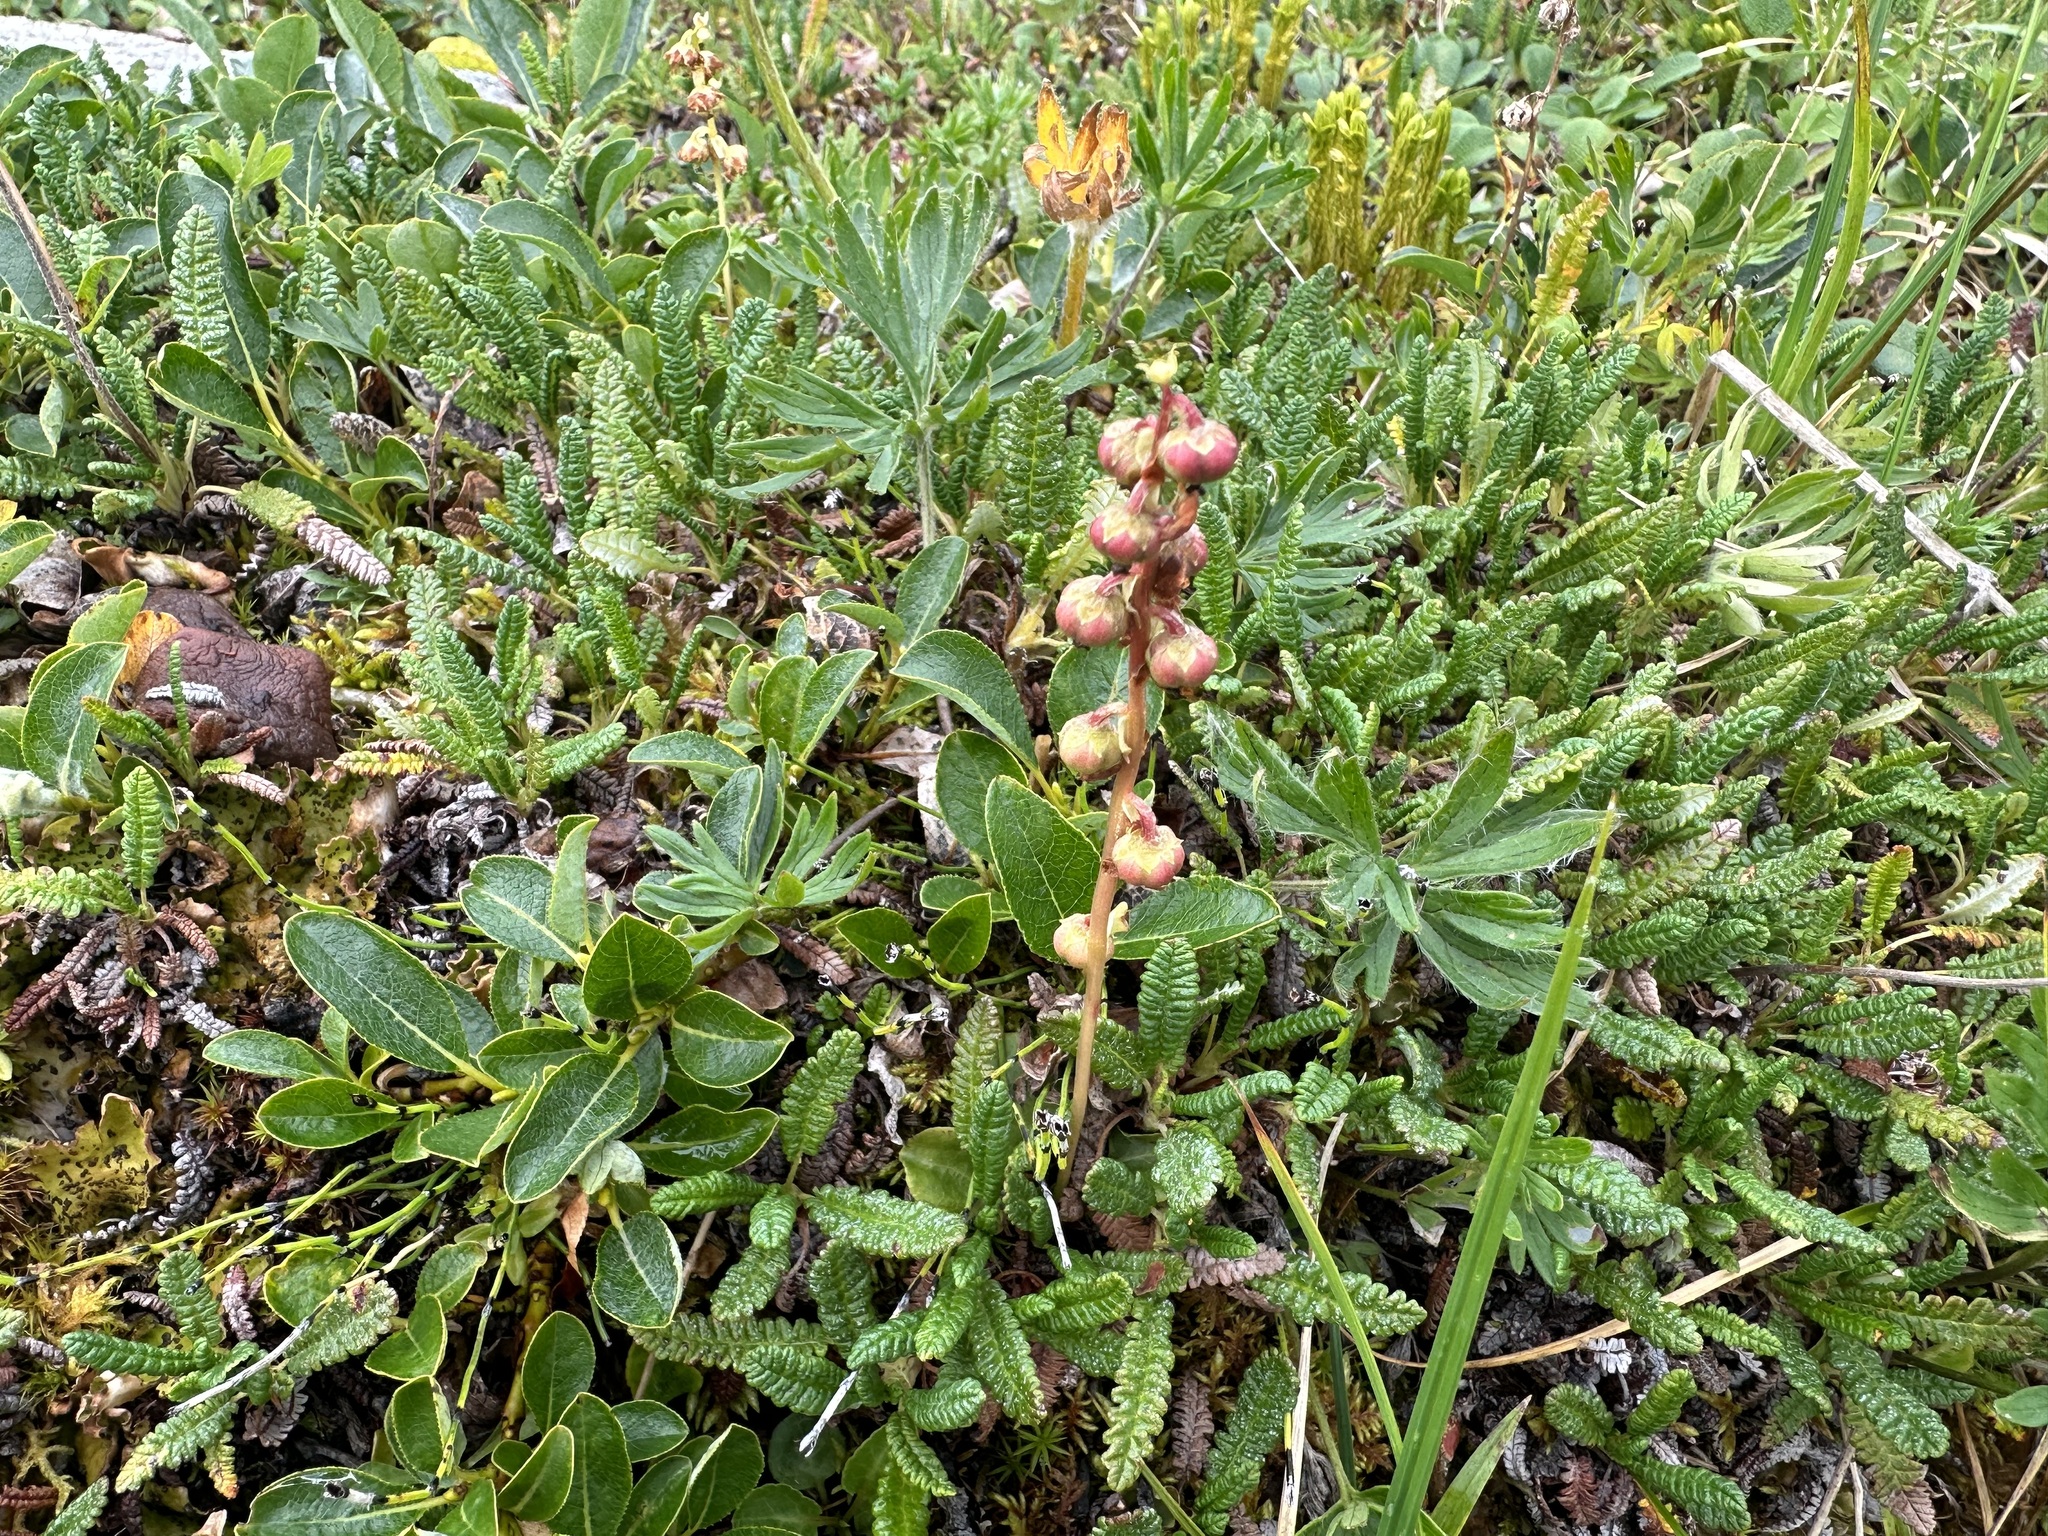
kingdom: Plantae
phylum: Tracheophyta
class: Magnoliopsida
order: Ericales
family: Ericaceae
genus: Pyrola
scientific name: Pyrola minor
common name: Common wintergreen
